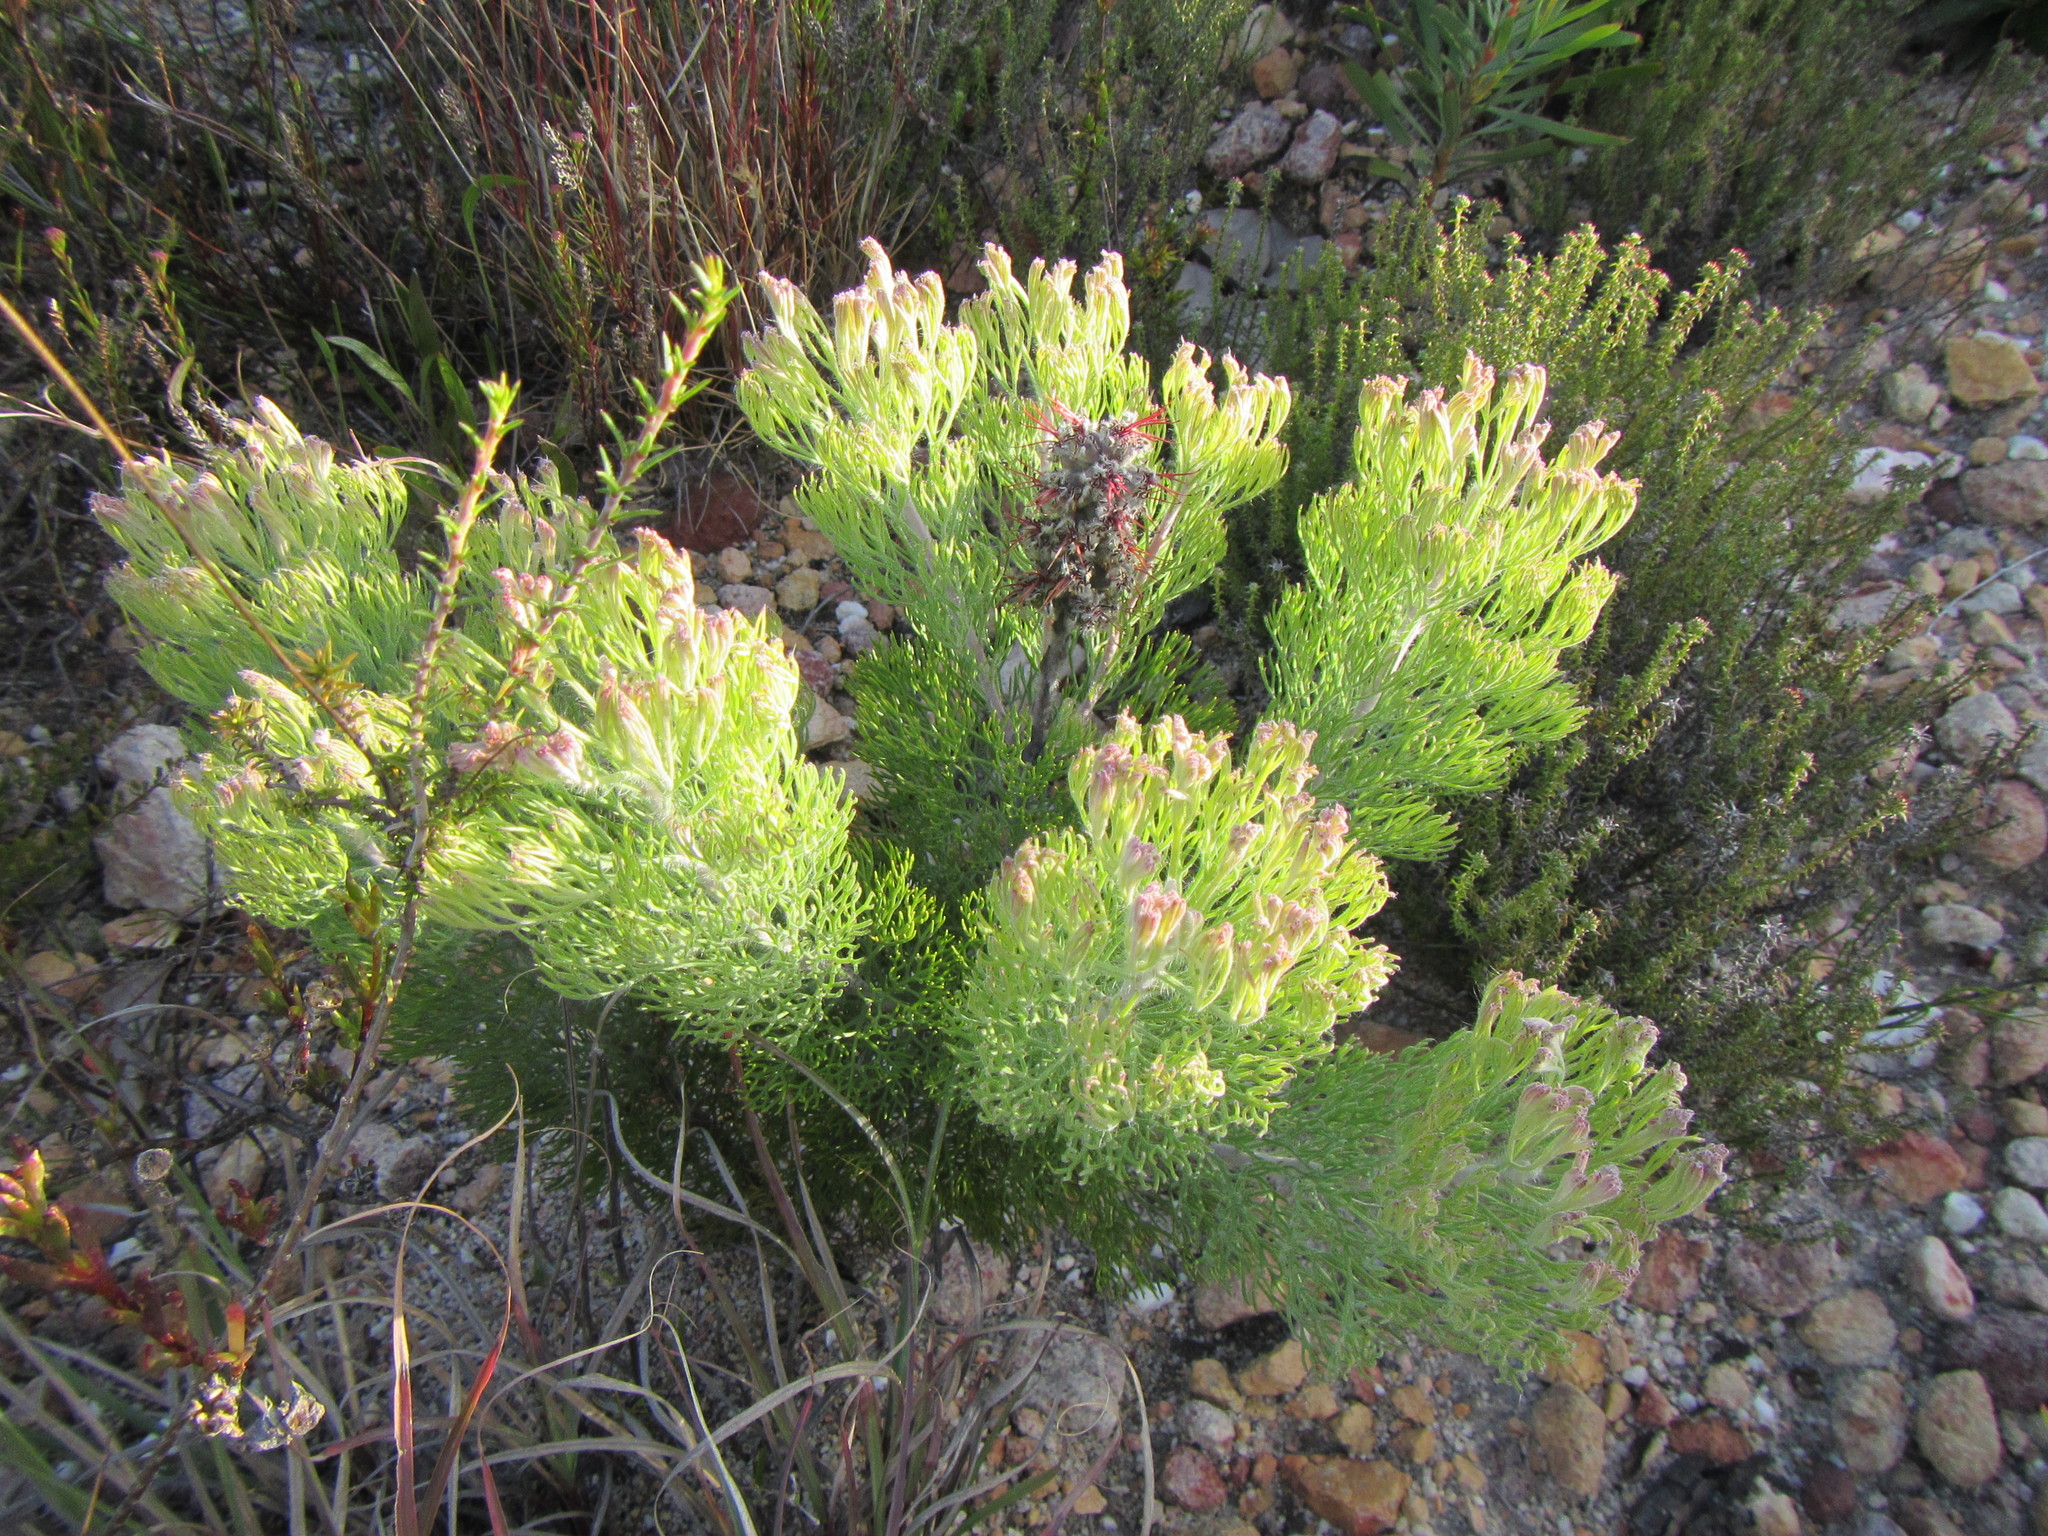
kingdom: Plantae
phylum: Tracheophyta
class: Magnoliopsida
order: Proteales
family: Proteaceae
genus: Paranomus
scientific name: Paranomus bolusii
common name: Overberg sceptre
